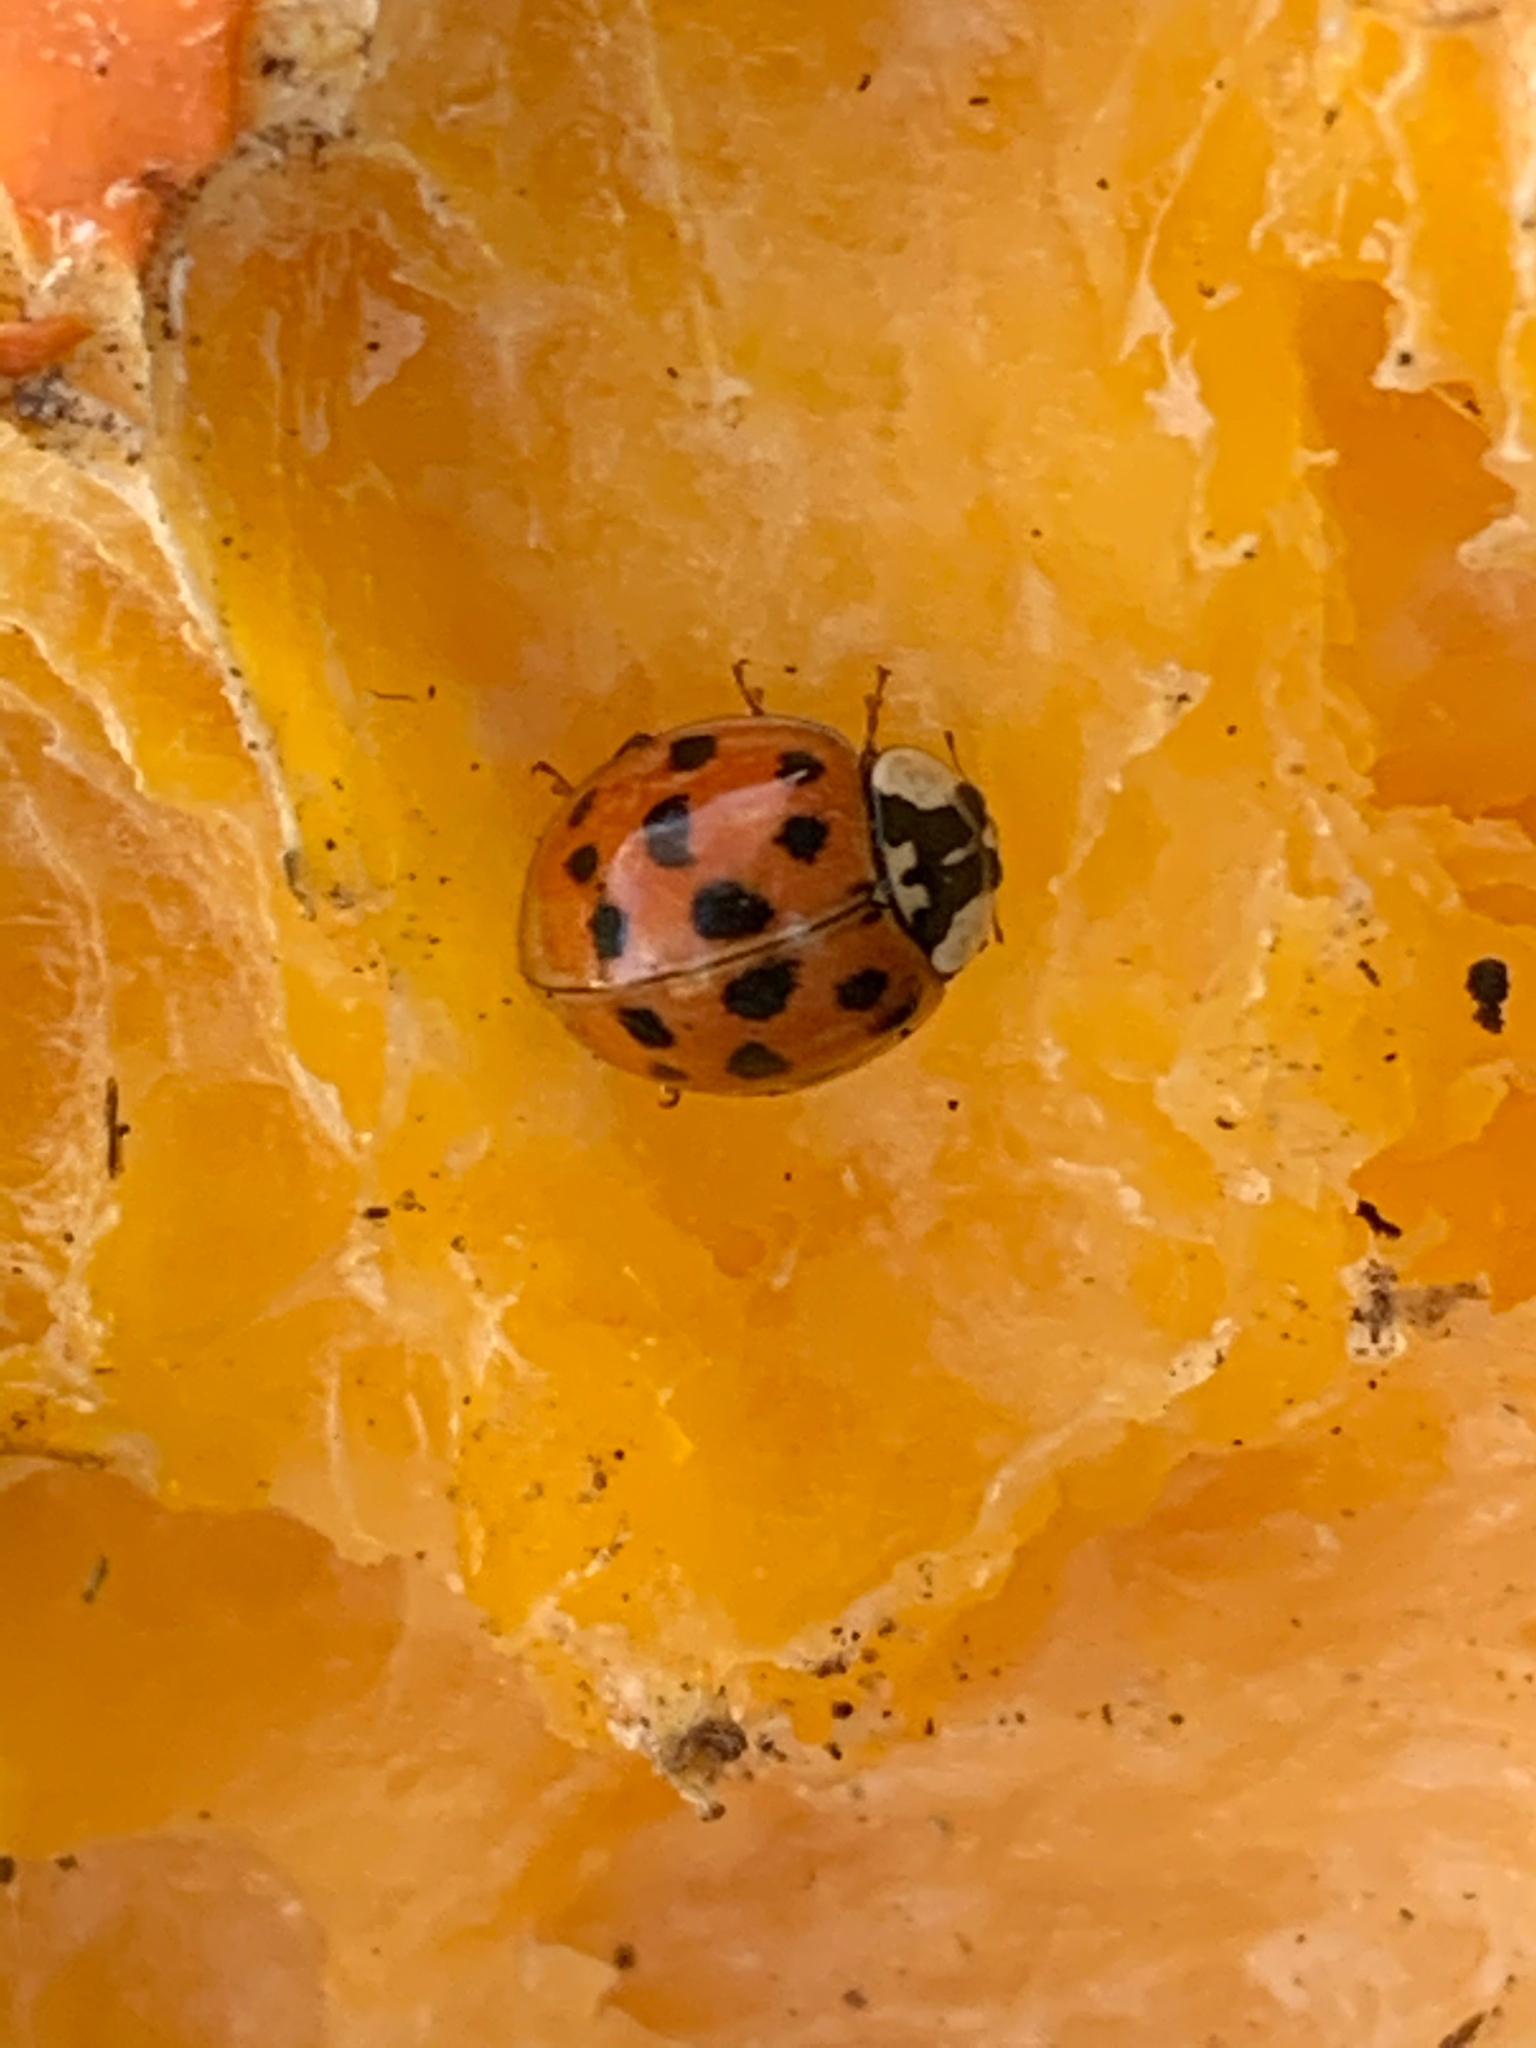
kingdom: Animalia
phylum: Arthropoda
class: Insecta
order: Coleoptera
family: Coccinellidae
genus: Harmonia
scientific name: Harmonia axyridis
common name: Harlequin ladybird
